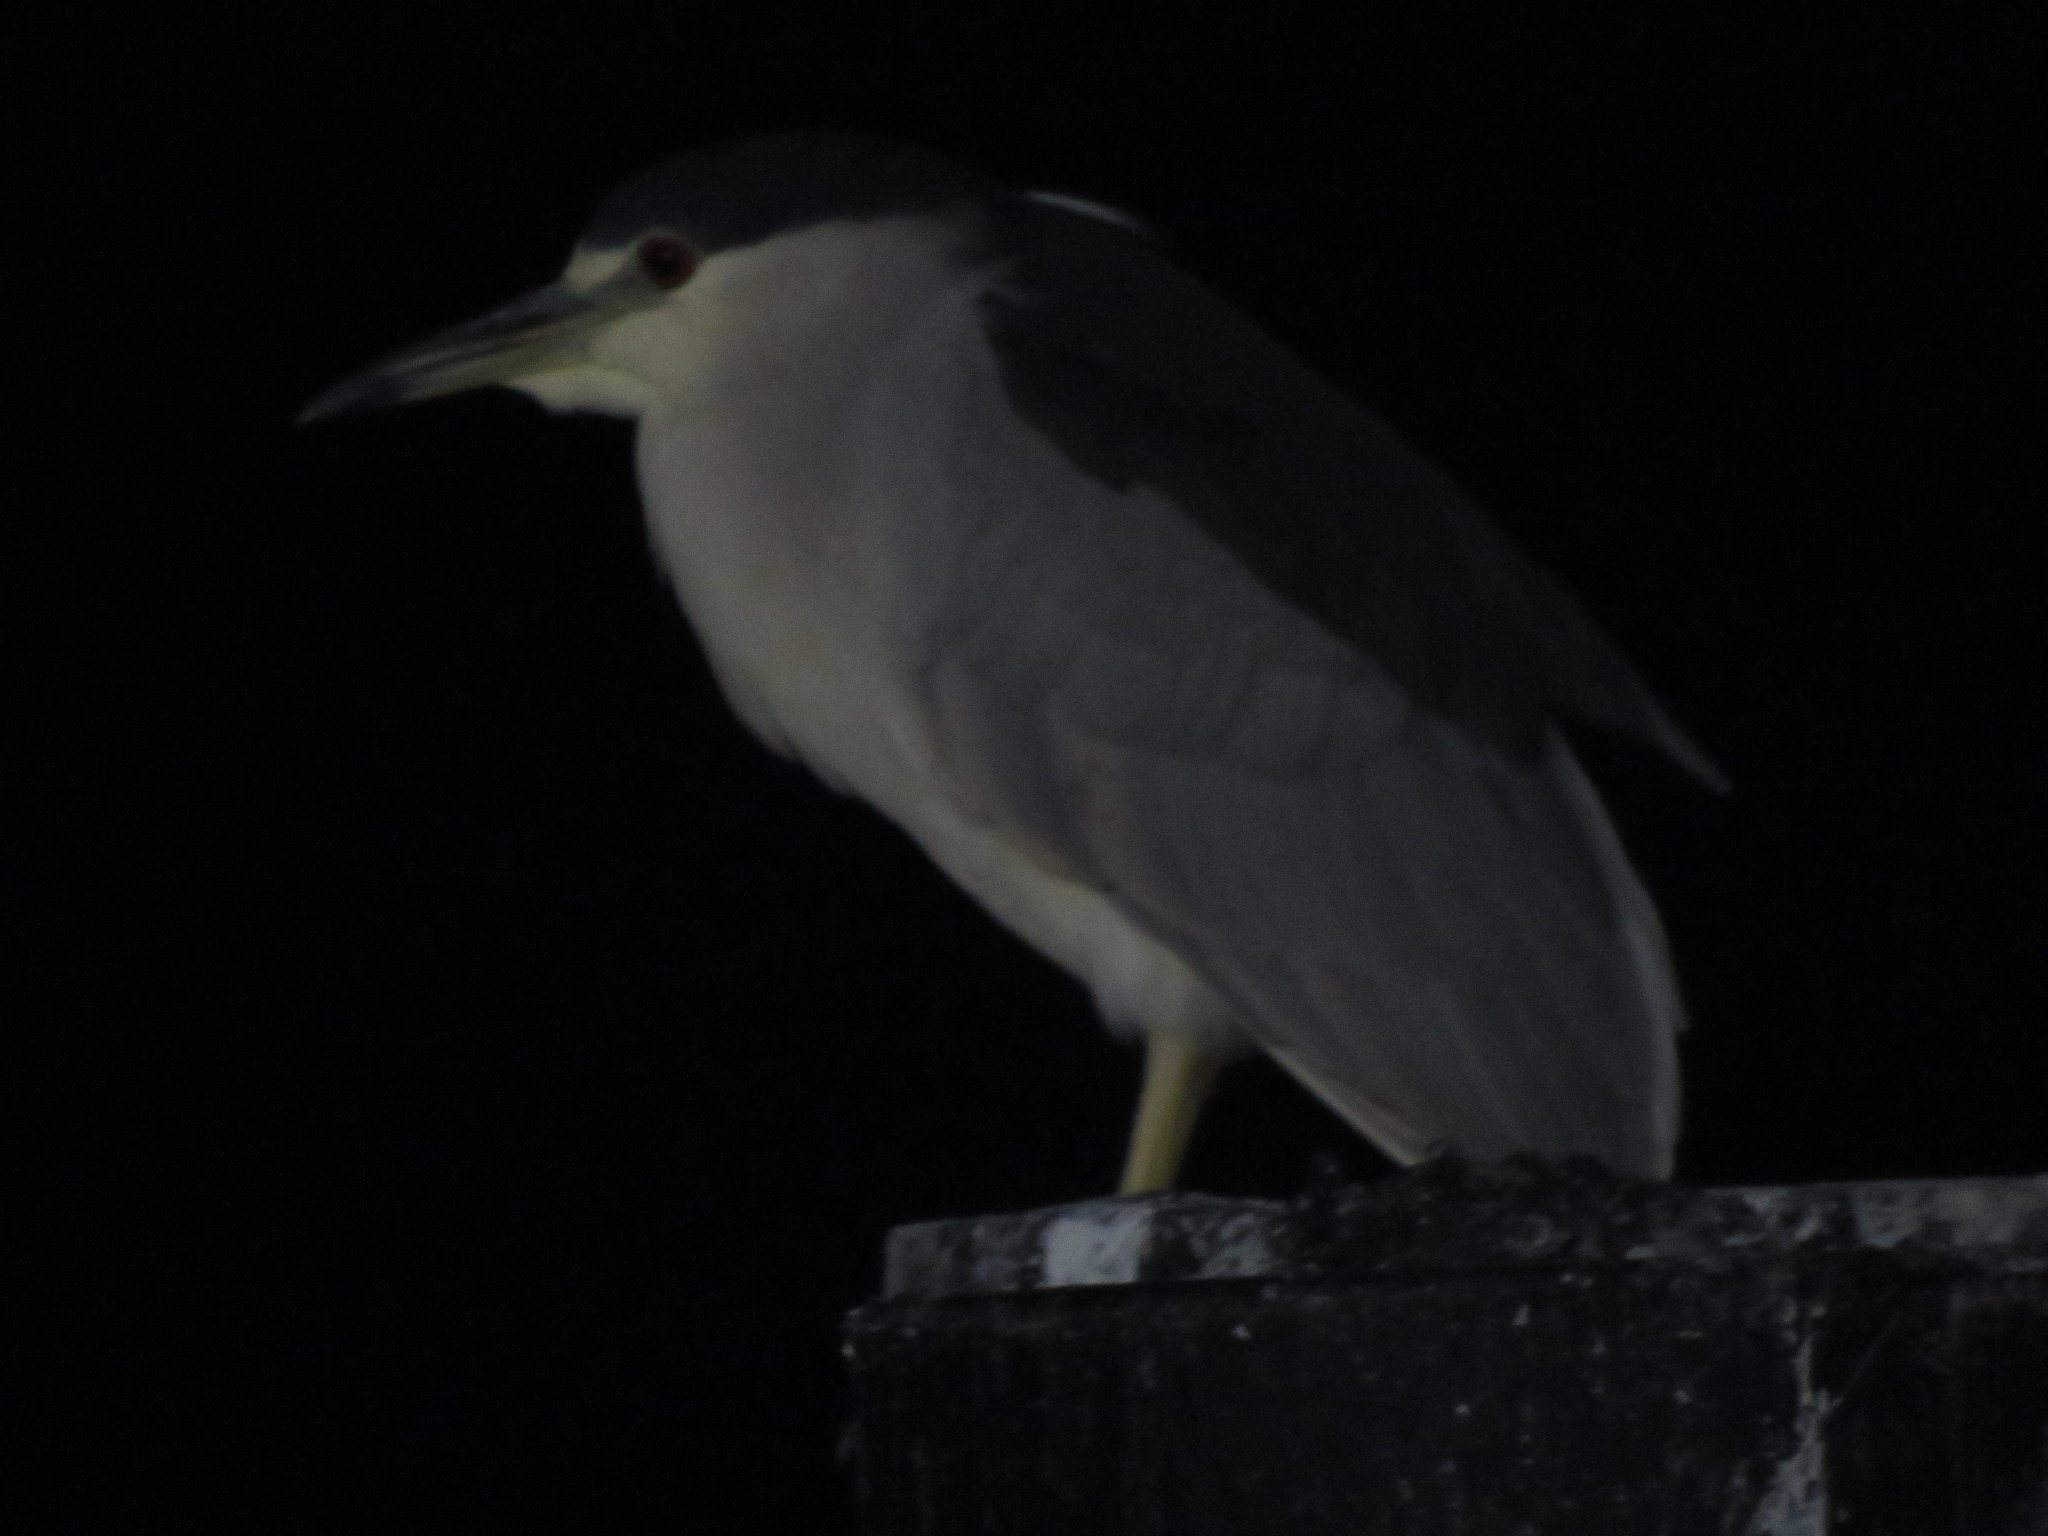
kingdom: Animalia
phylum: Chordata
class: Aves
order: Pelecaniformes
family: Ardeidae
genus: Nycticorax
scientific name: Nycticorax nycticorax
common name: Black-crowned night heron
